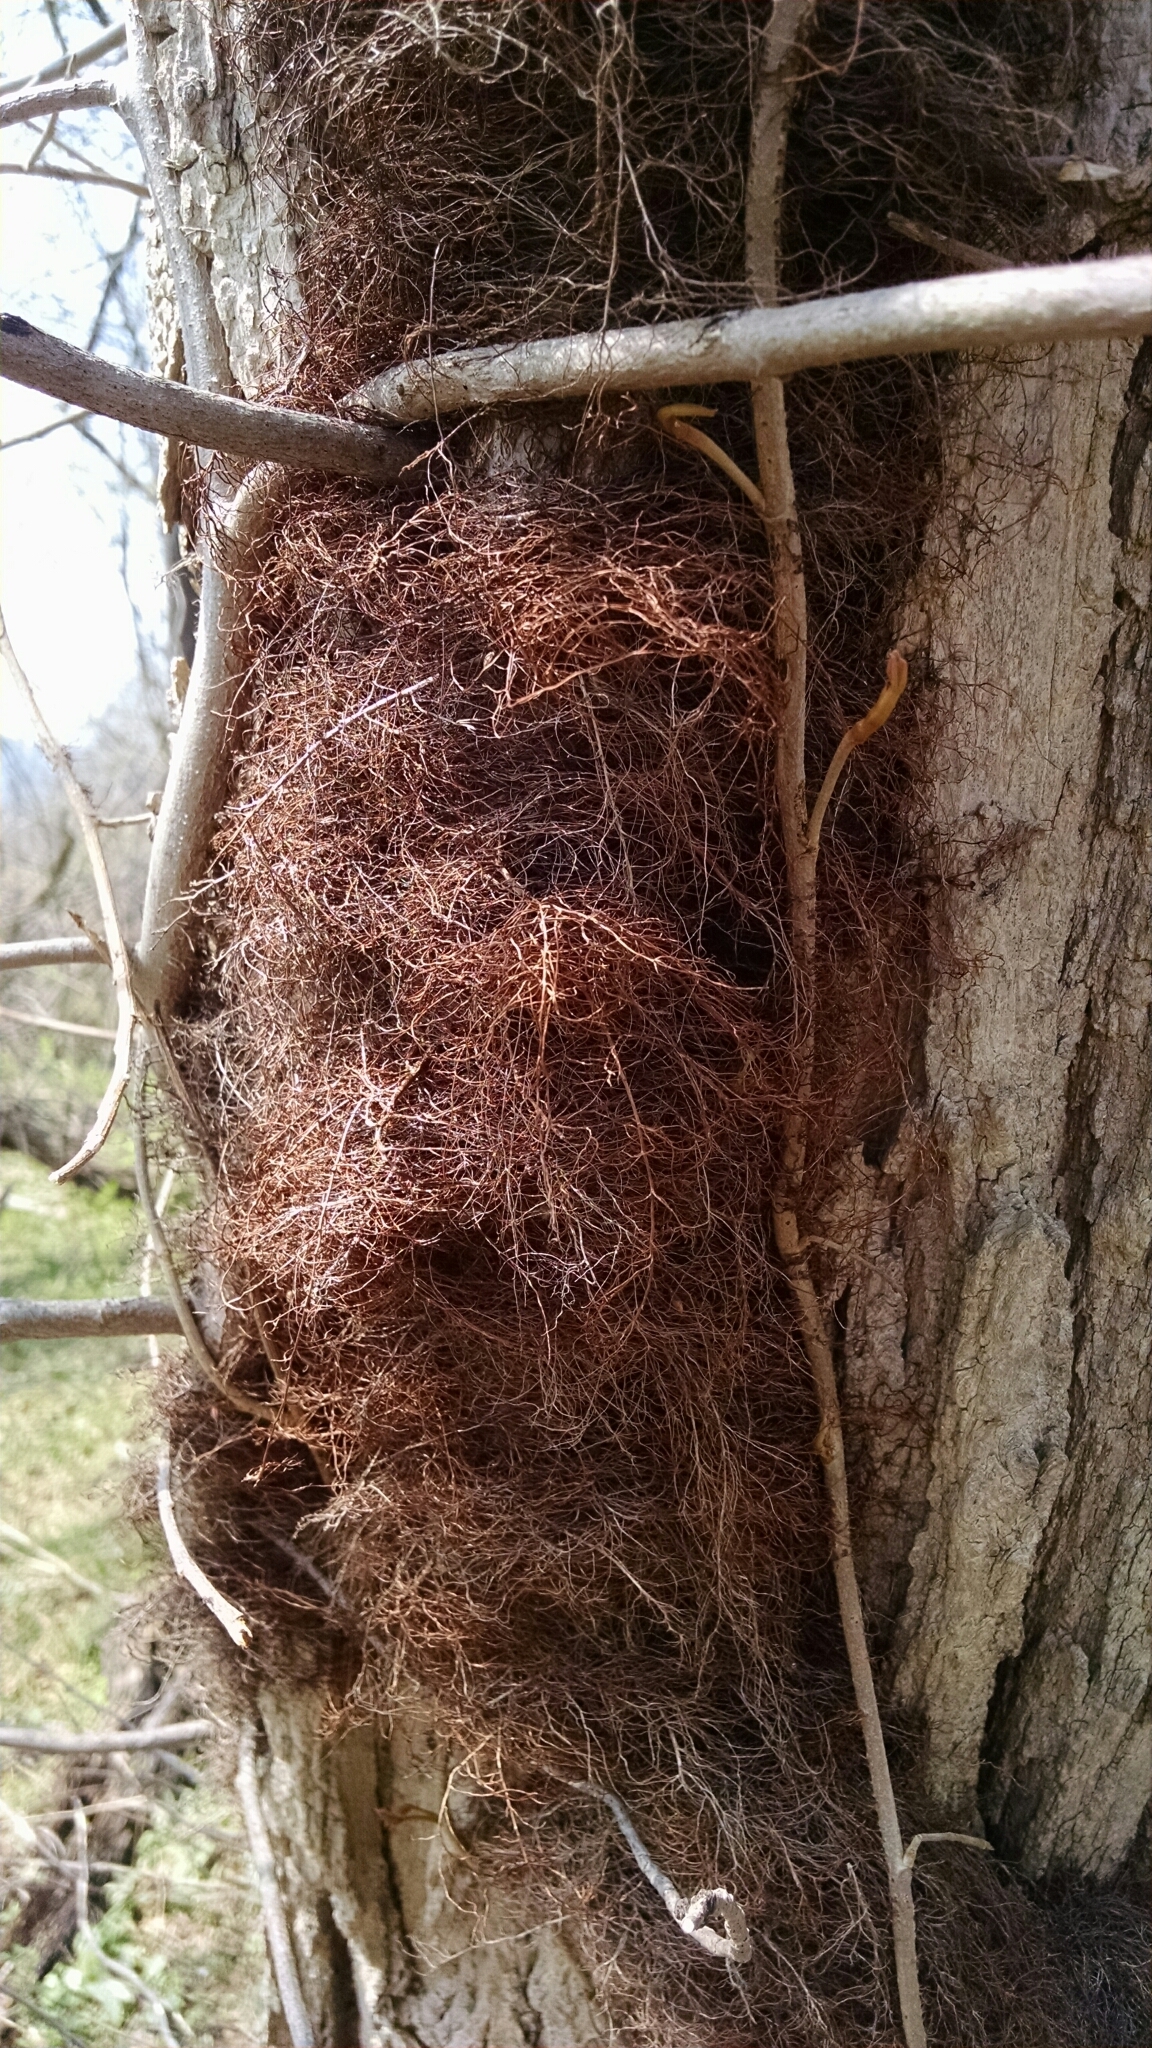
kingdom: Plantae
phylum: Tracheophyta
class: Magnoliopsida
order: Sapindales
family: Anacardiaceae
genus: Toxicodendron
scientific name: Toxicodendron radicans
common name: Poison ivy
